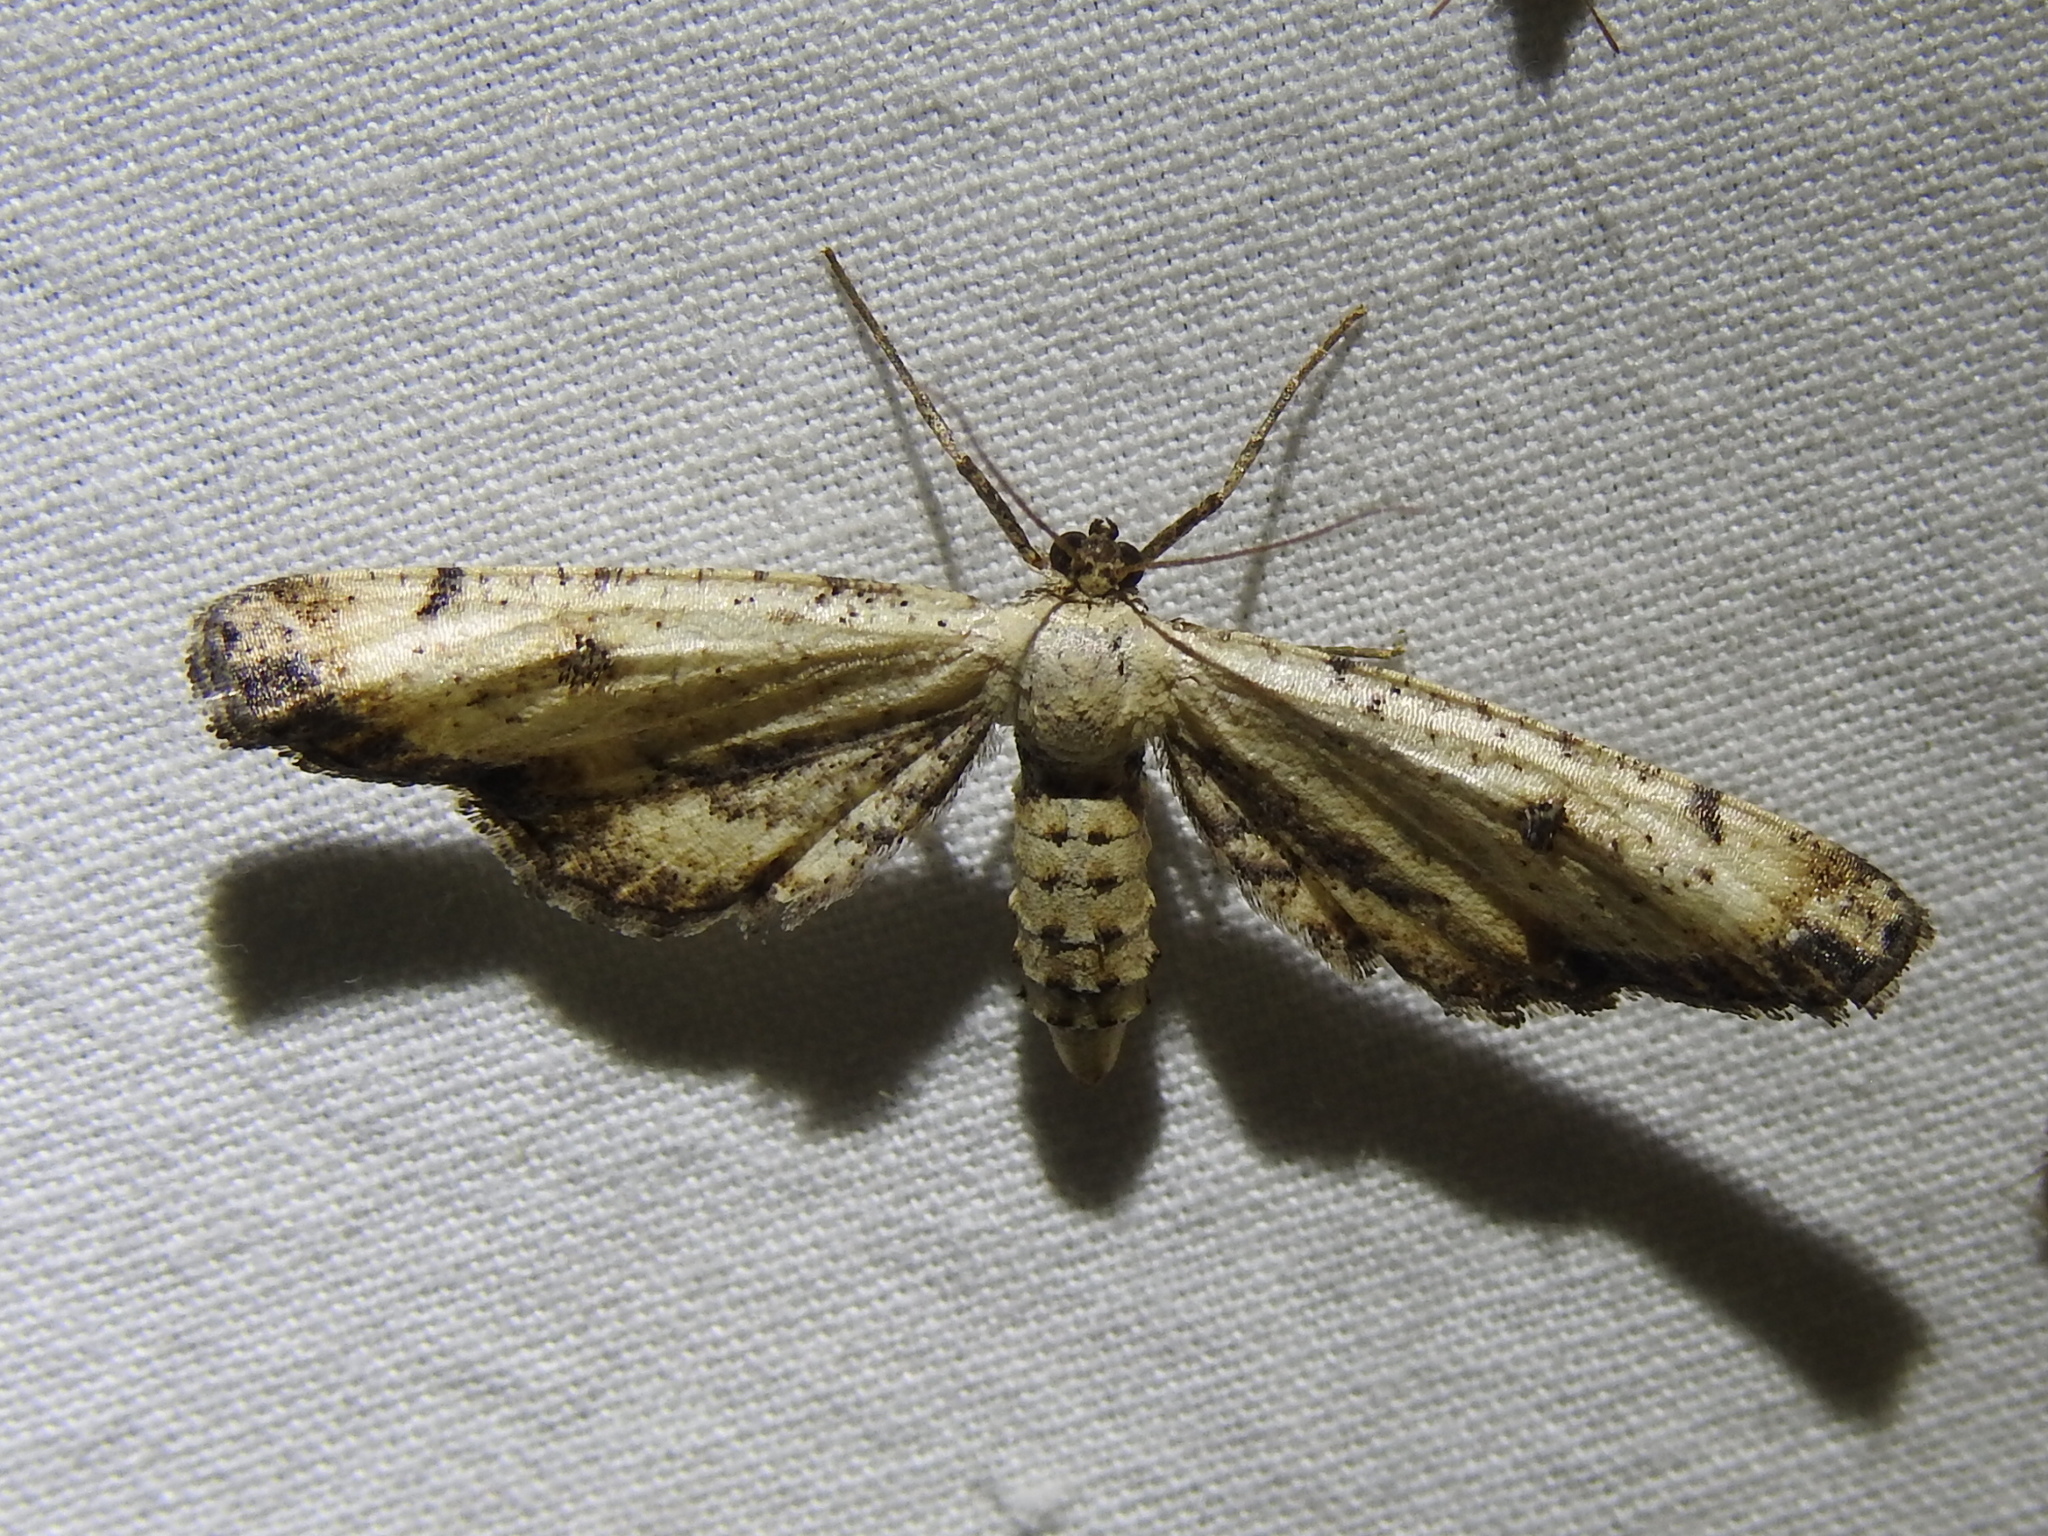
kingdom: Animalia
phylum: Arthropoda
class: Insecta
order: Lepidoptera
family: Geometridae
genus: Tornos
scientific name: Tornos scolopacinaria
